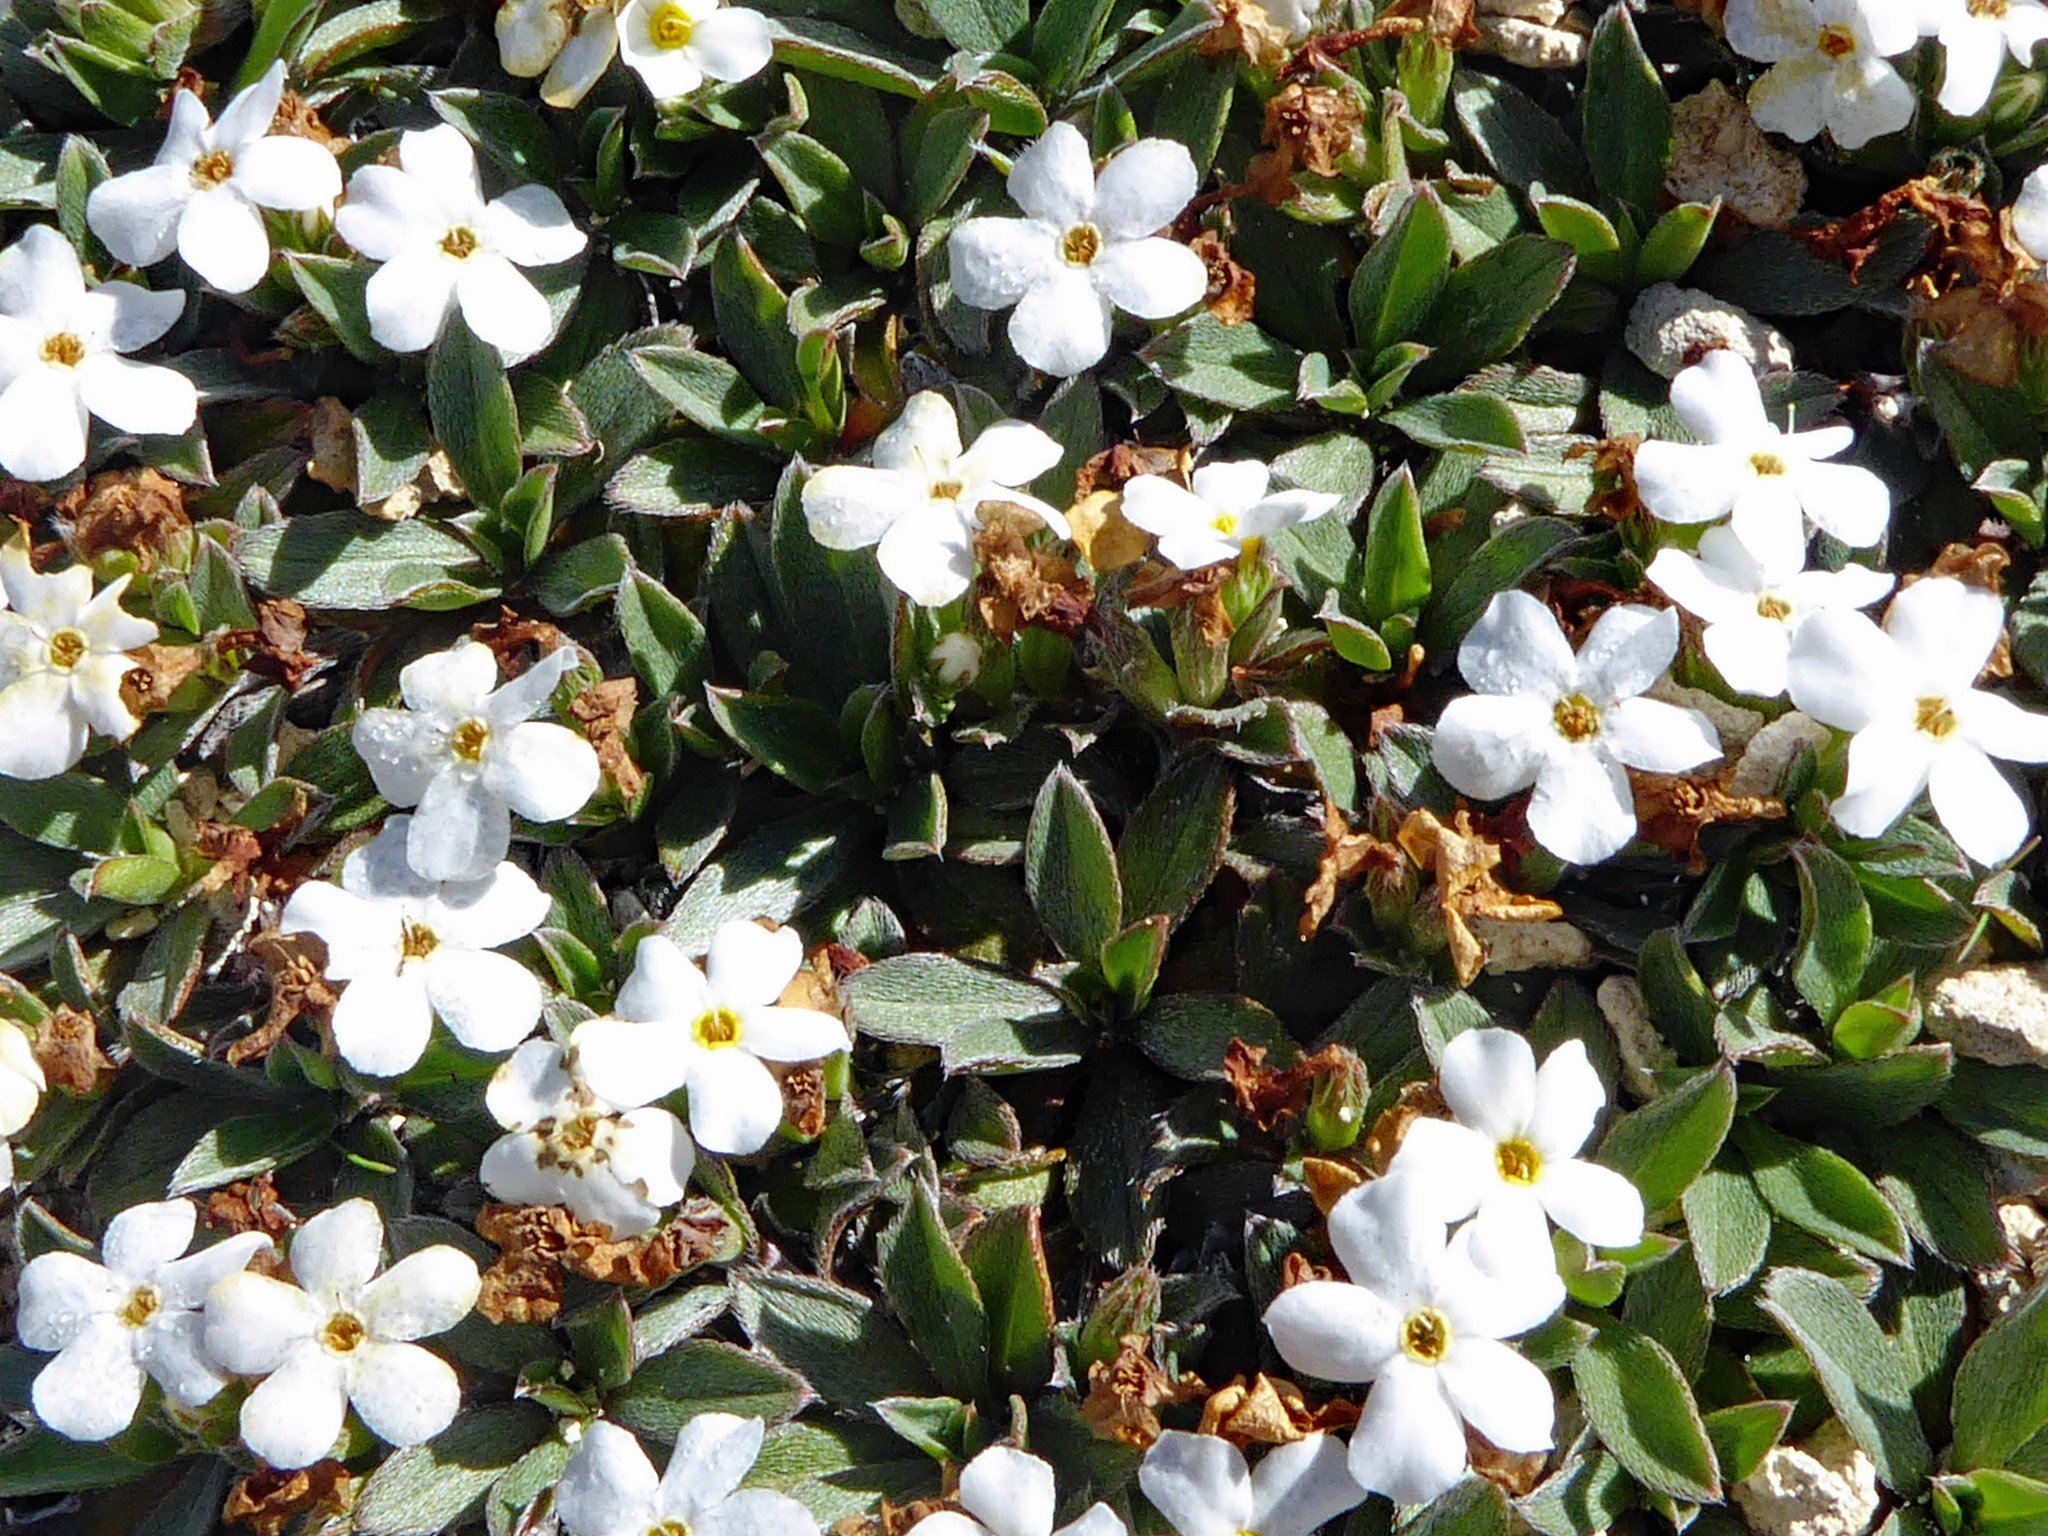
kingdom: Plantae
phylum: Tracheophyta
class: Magnoliopsida
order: Boraginales
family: Boraginaceae
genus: Myosotis
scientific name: Myosotis colensoi
